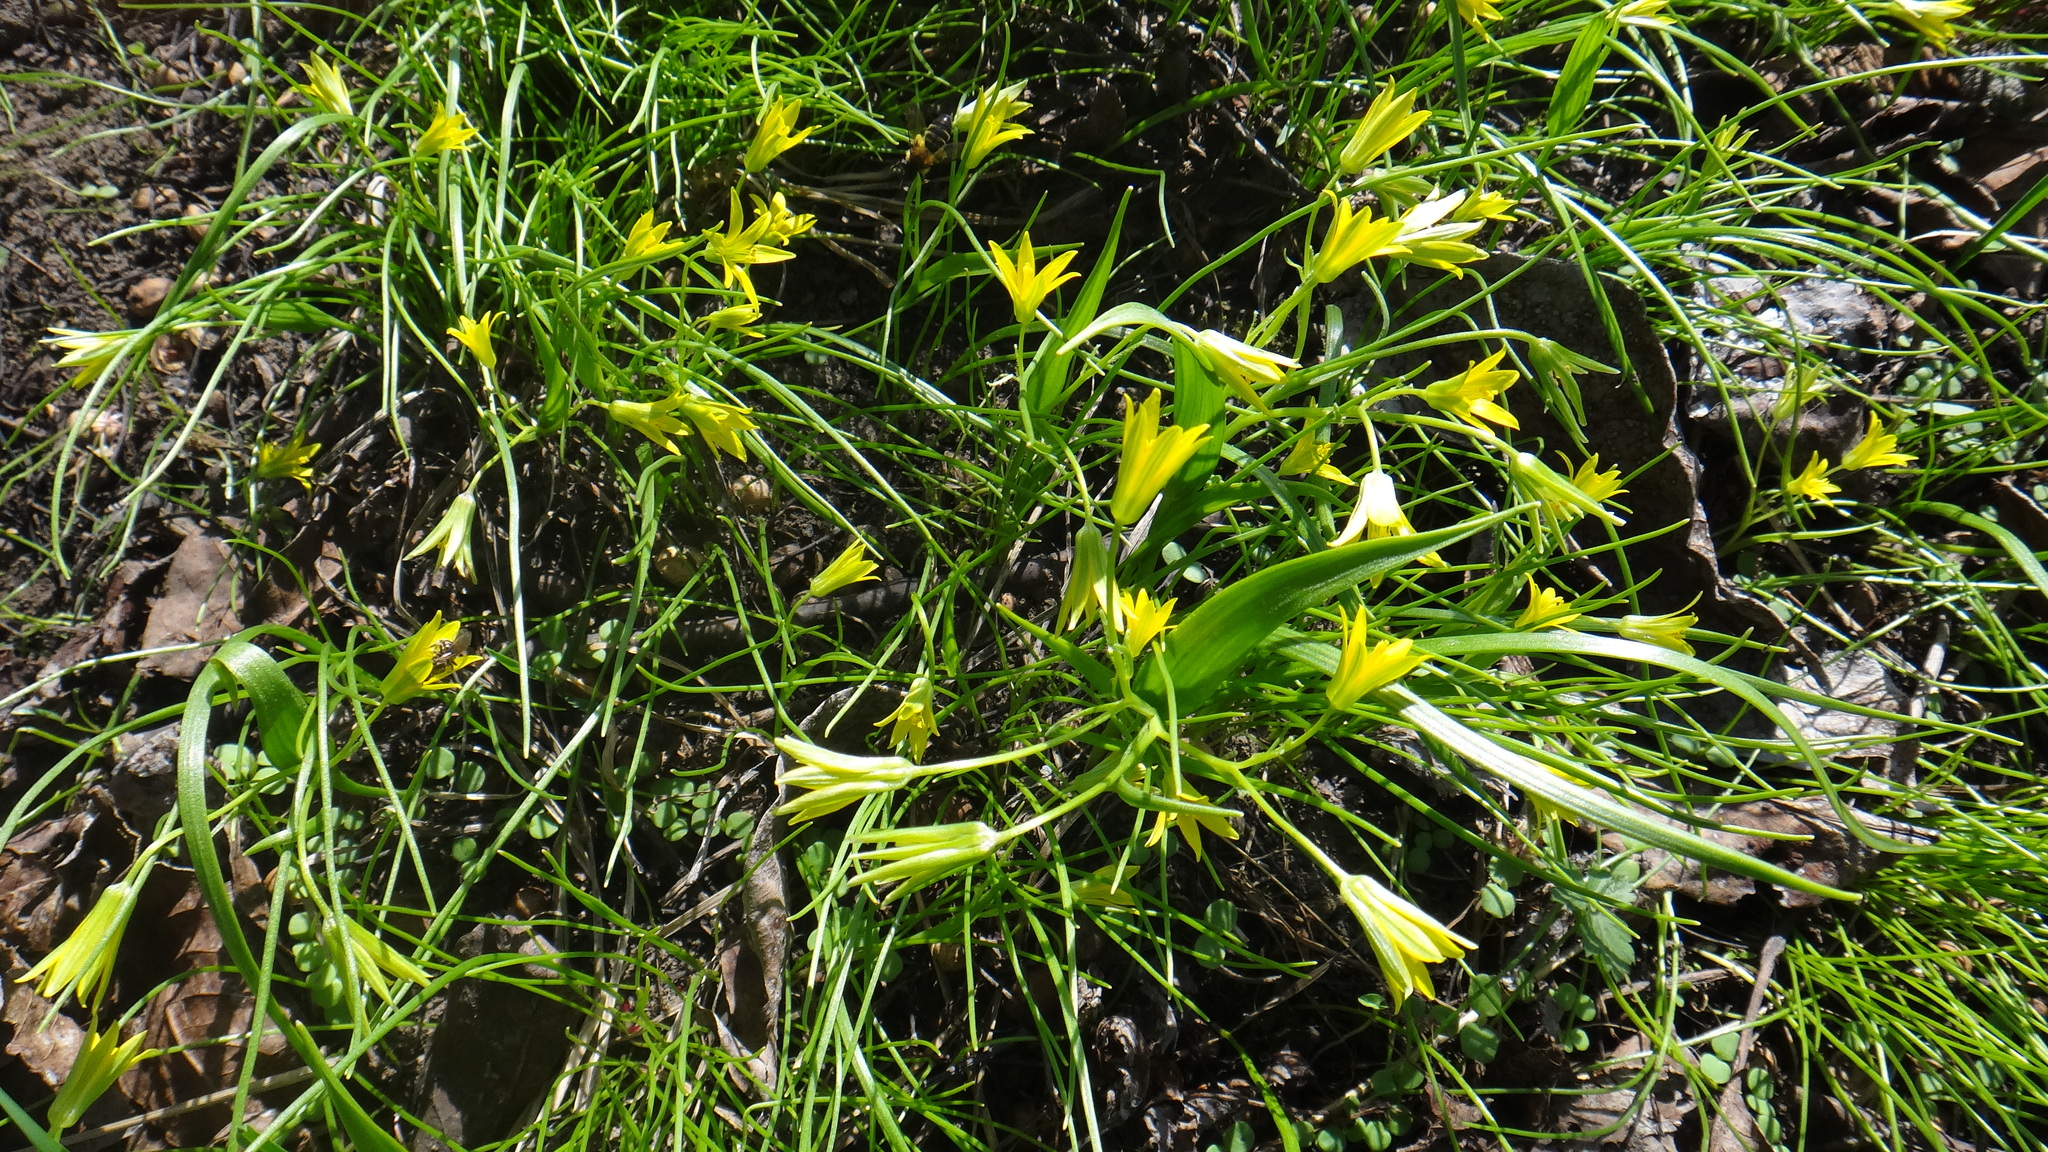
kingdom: Plantae
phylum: Tracheophyta
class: Liliopsida
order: Liliales
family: Liliaceae
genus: Gagea
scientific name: Gagea minima
